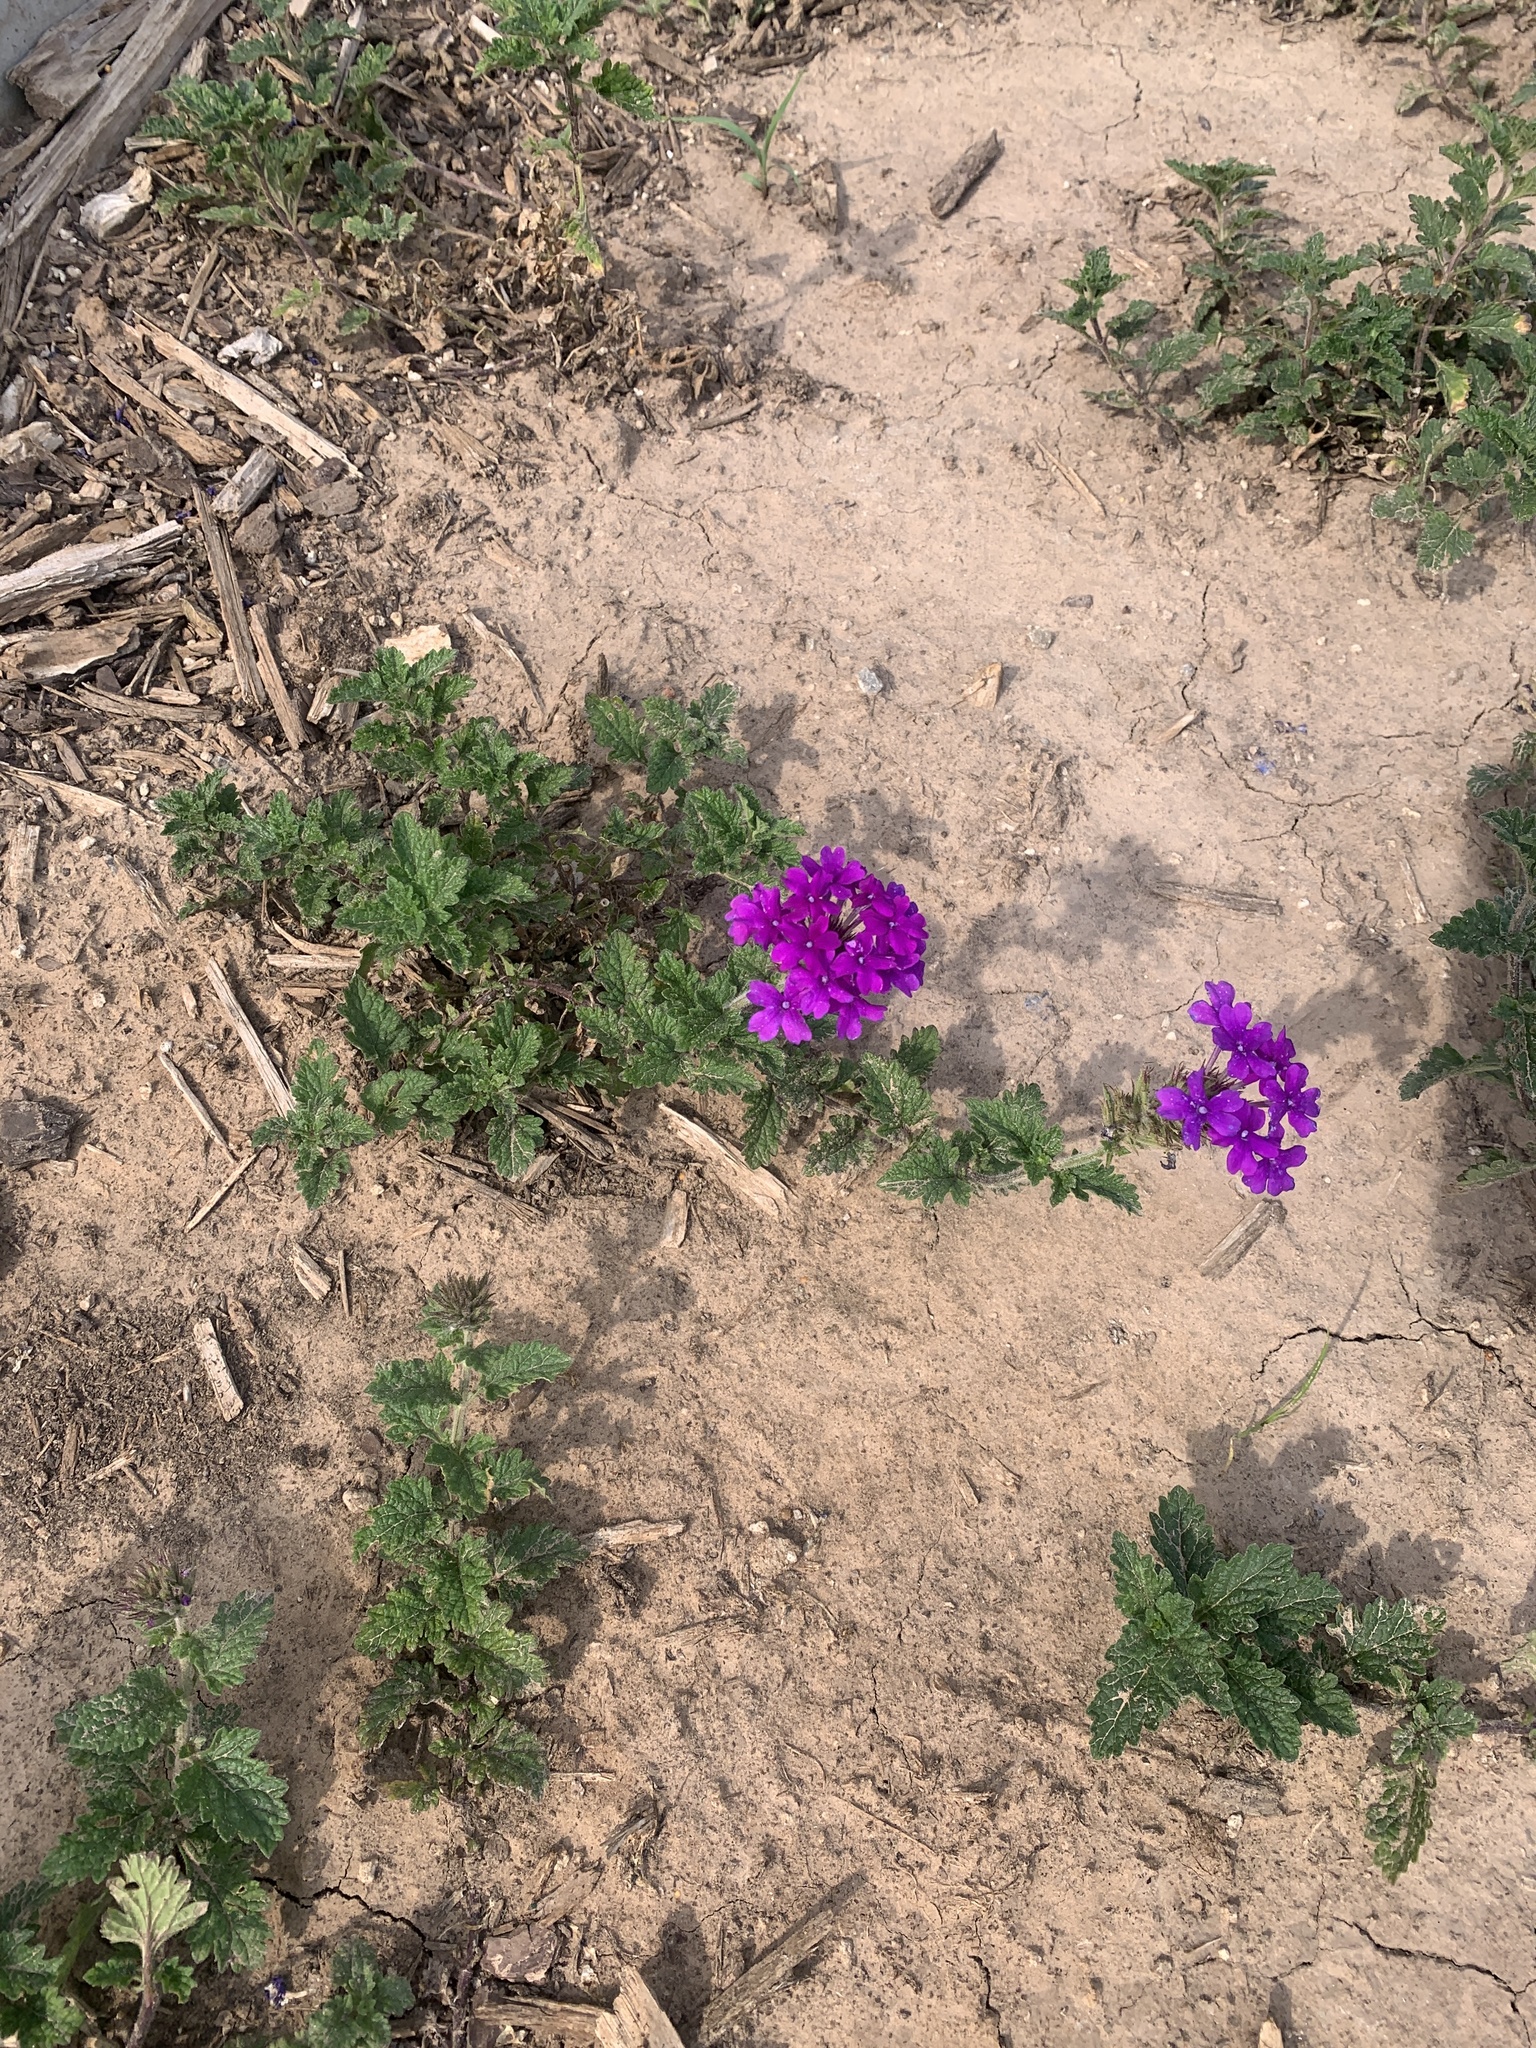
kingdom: Plantae
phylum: Tracheophyta
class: Magnoliopsida
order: Lamiales
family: Verbenaceae
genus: Verbena
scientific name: Verbena canadensis
